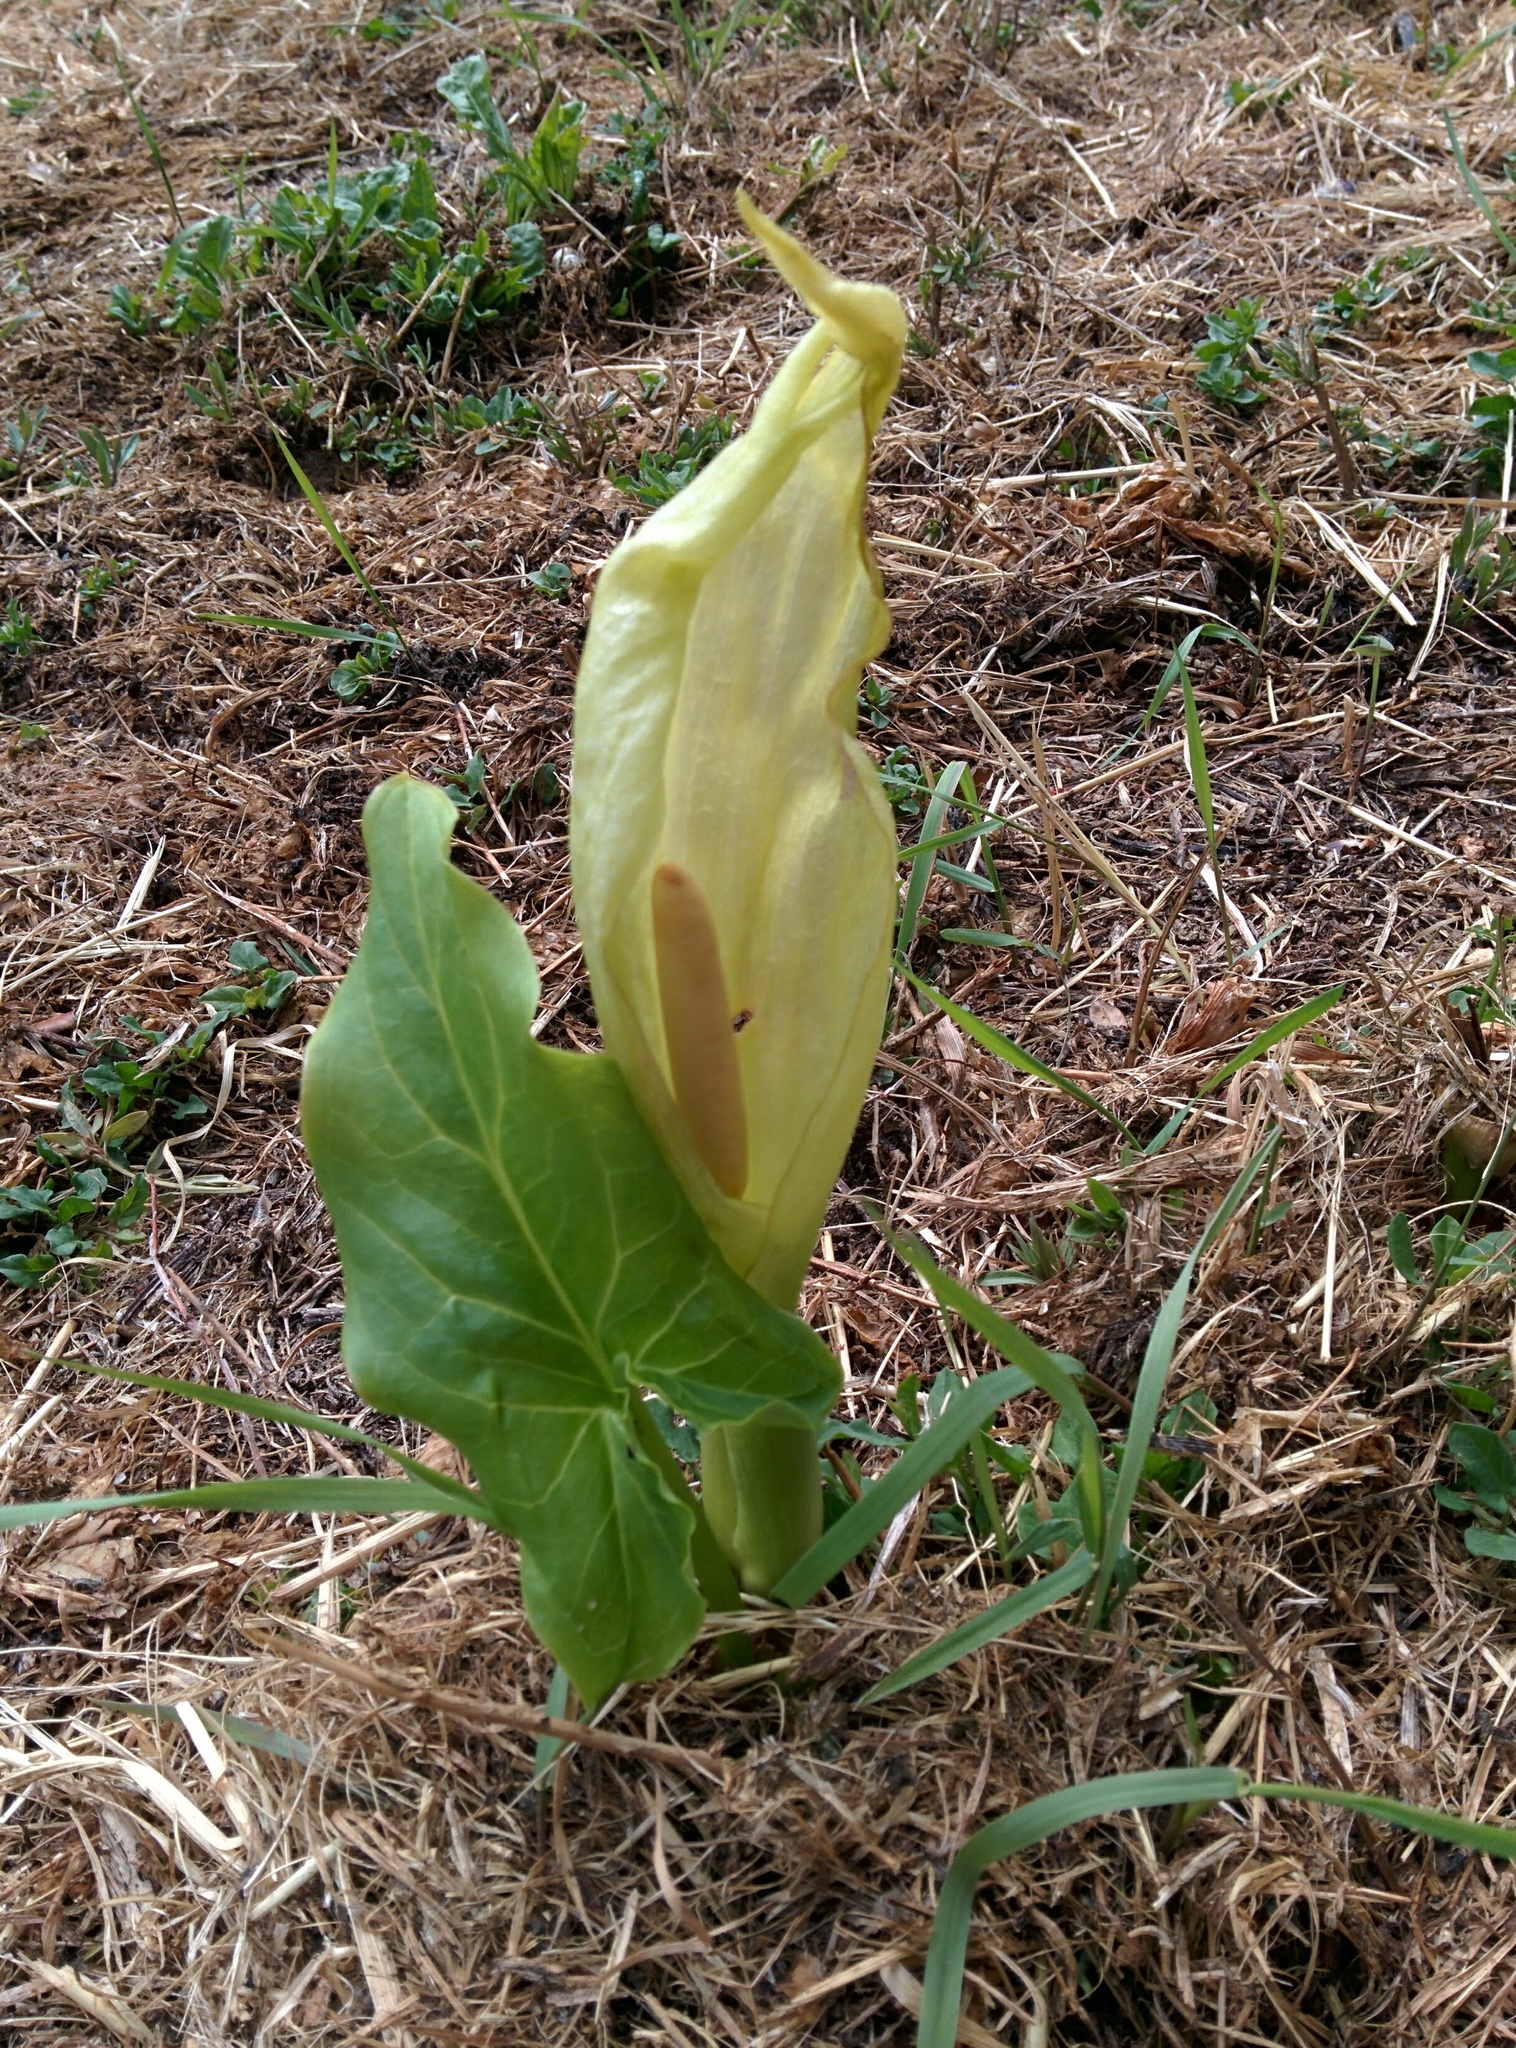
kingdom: Plantae
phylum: Tracheophyta
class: Liliopsida
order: Alismatales
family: Araceae
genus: Arum
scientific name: Arum italicum
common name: Italian lords-and-ladies
